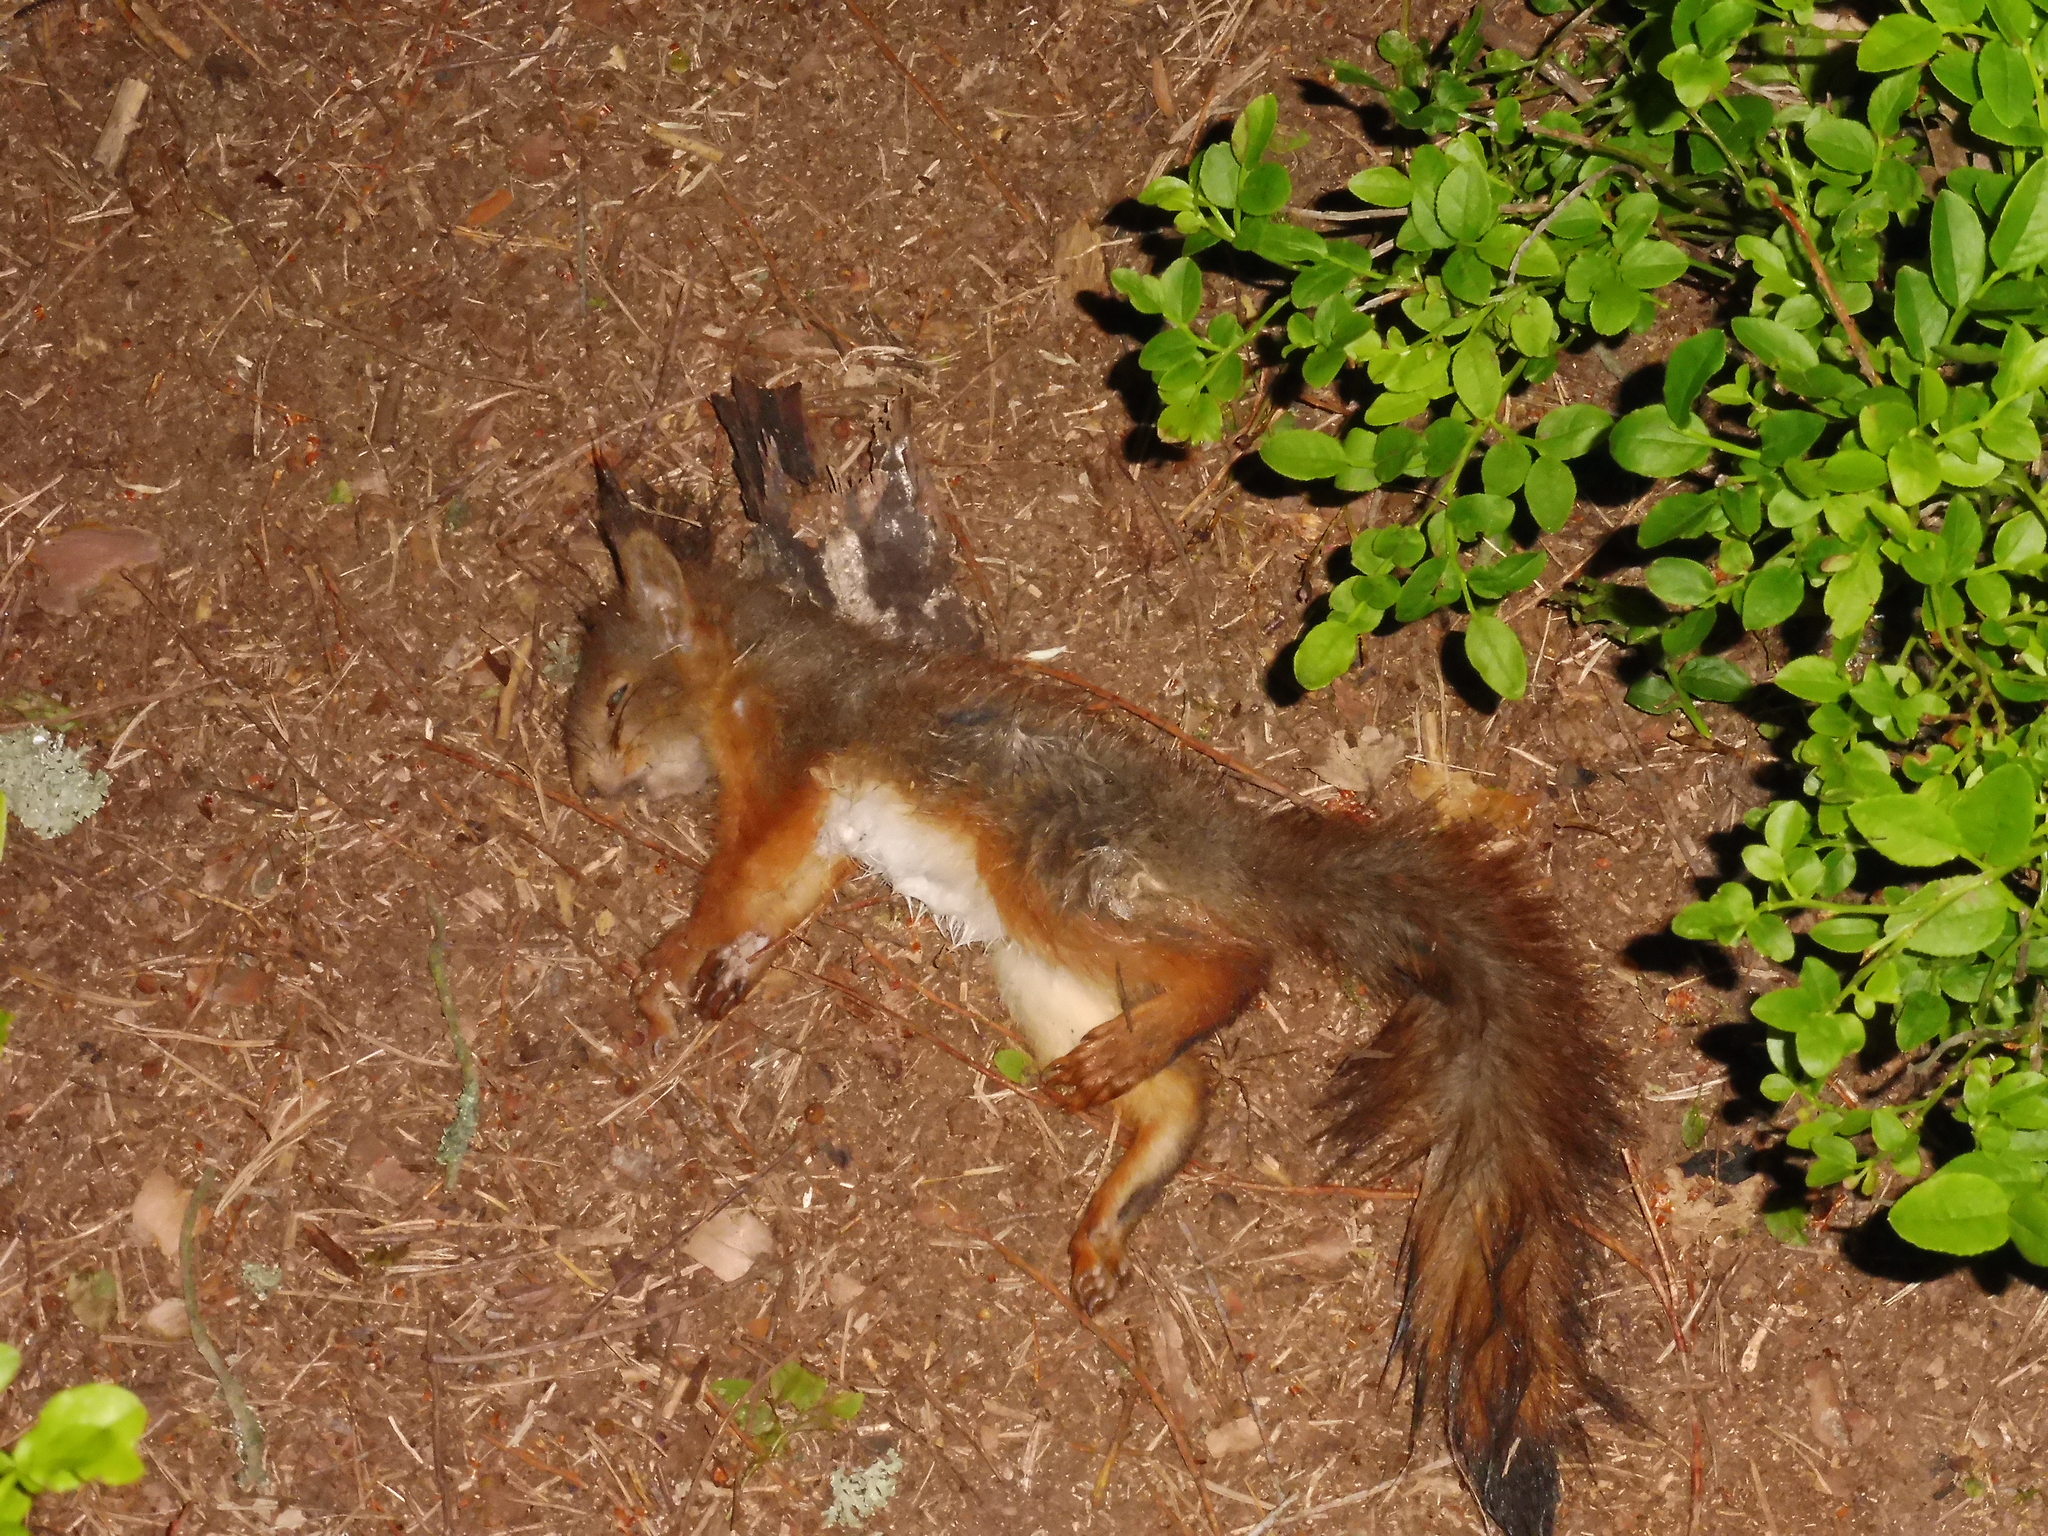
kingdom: Animalia
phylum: Chordata
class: Mammalia
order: Rodentia
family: Sciuridae
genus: Sciurus
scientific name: Sciurus vulgaris
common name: Eurasian red squirrel
